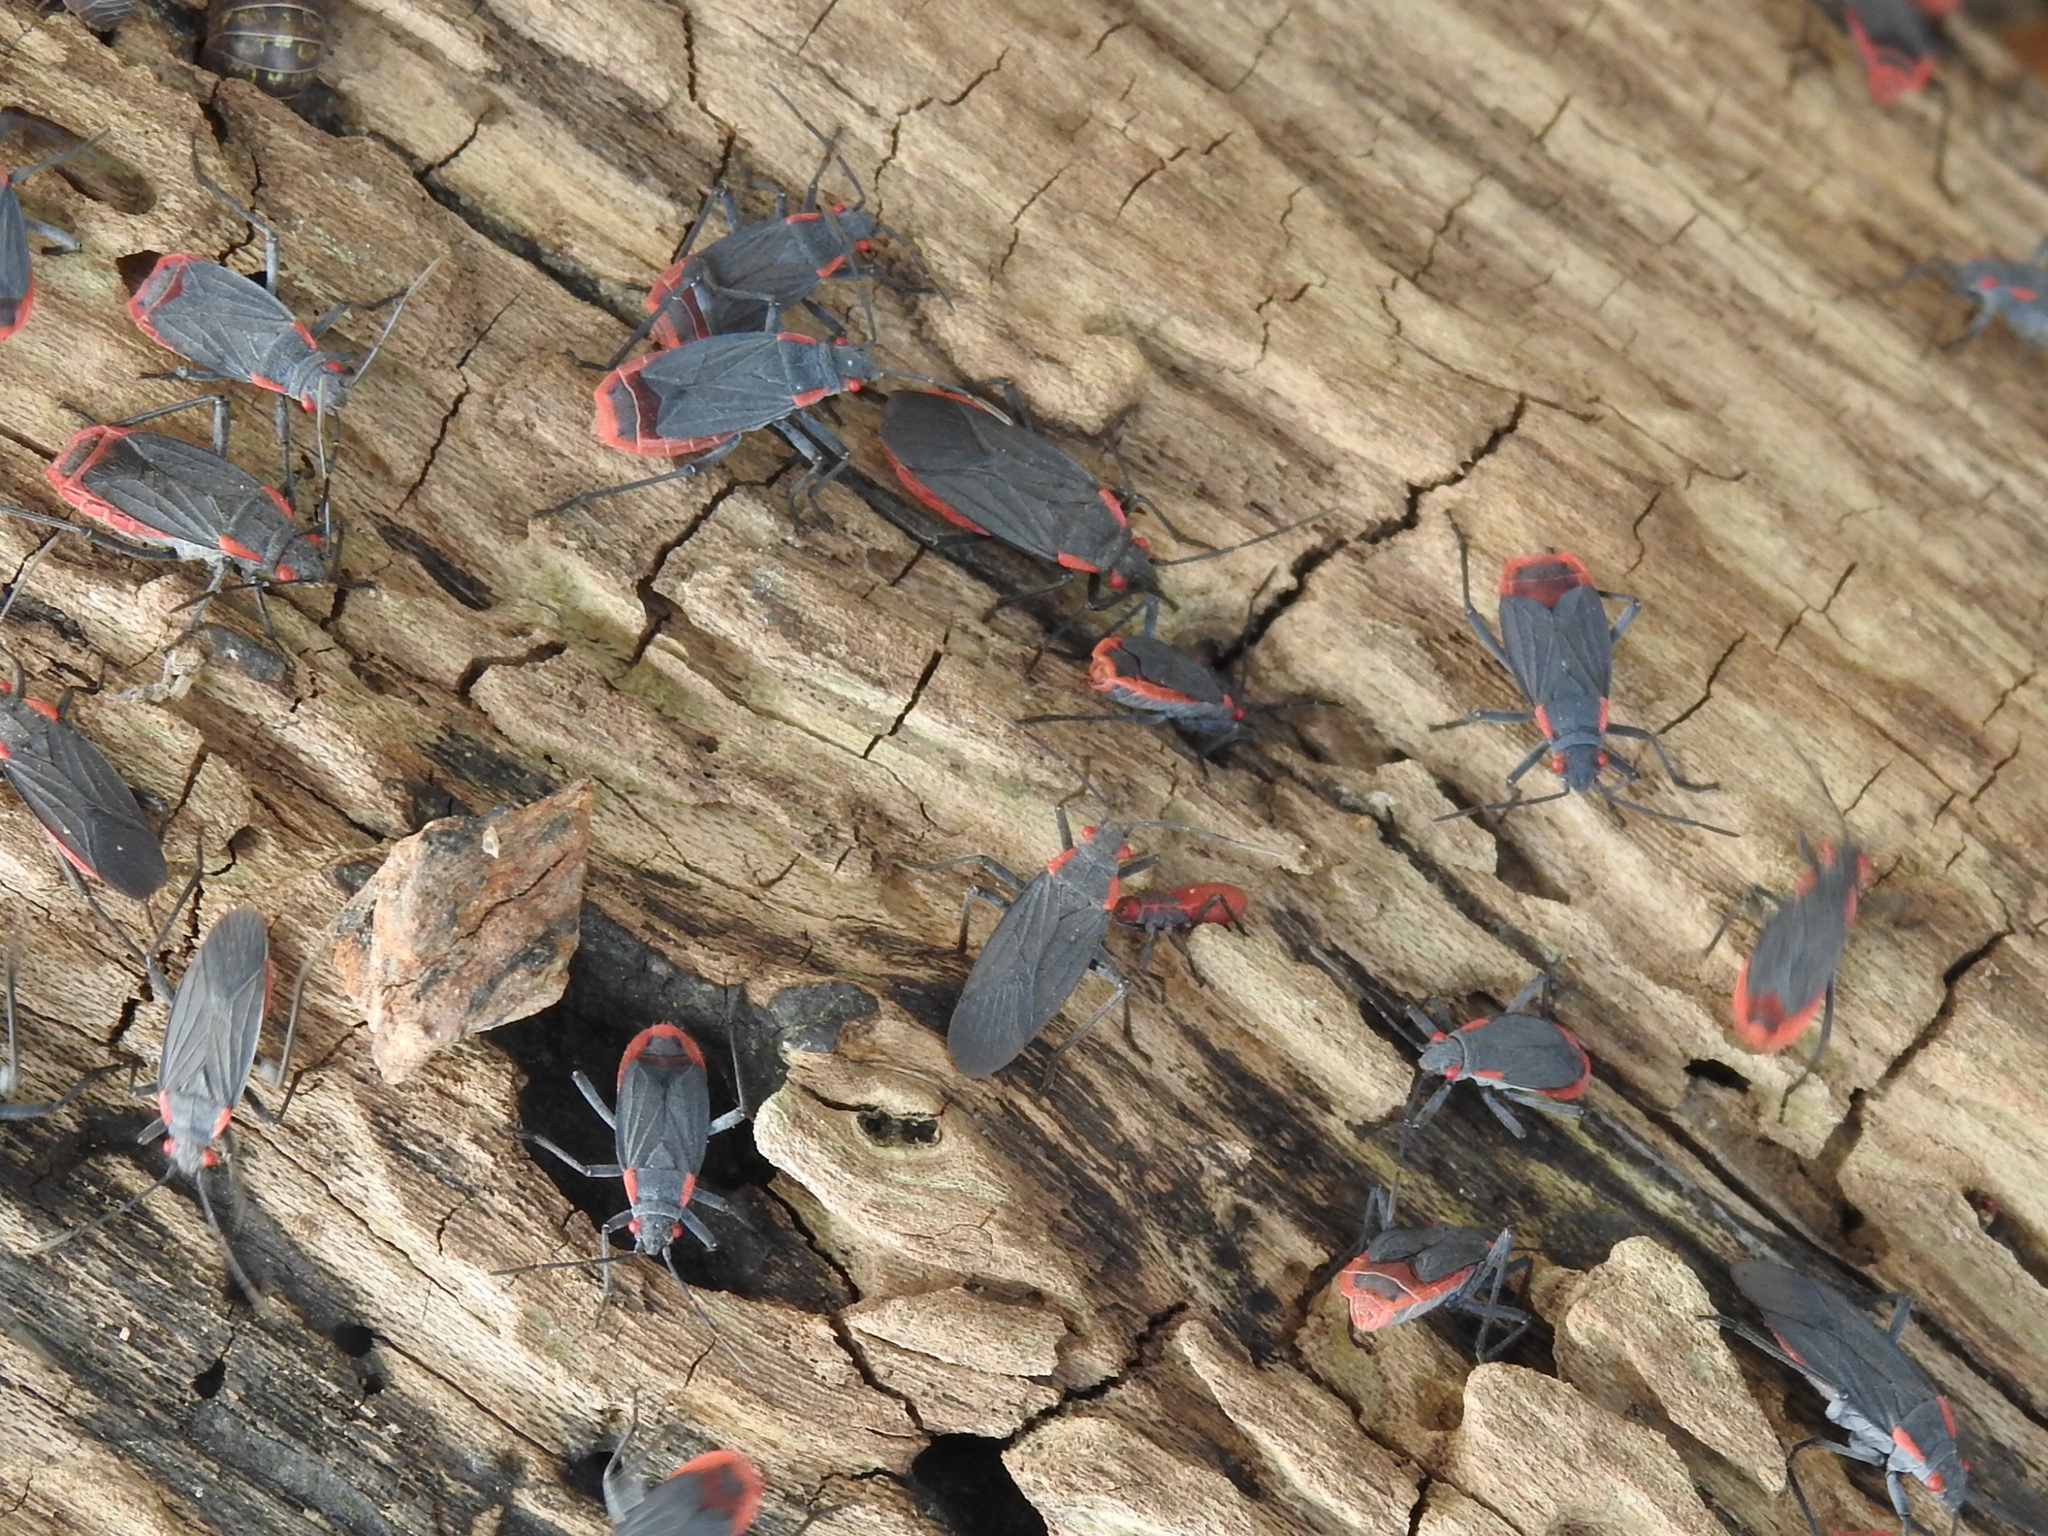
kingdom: Animalia
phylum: Arthropoda
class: Insecta
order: Hemiptera
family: Rhopalidae
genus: Jadera
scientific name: Jadera haematoloma
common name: Red-shouldered bug
